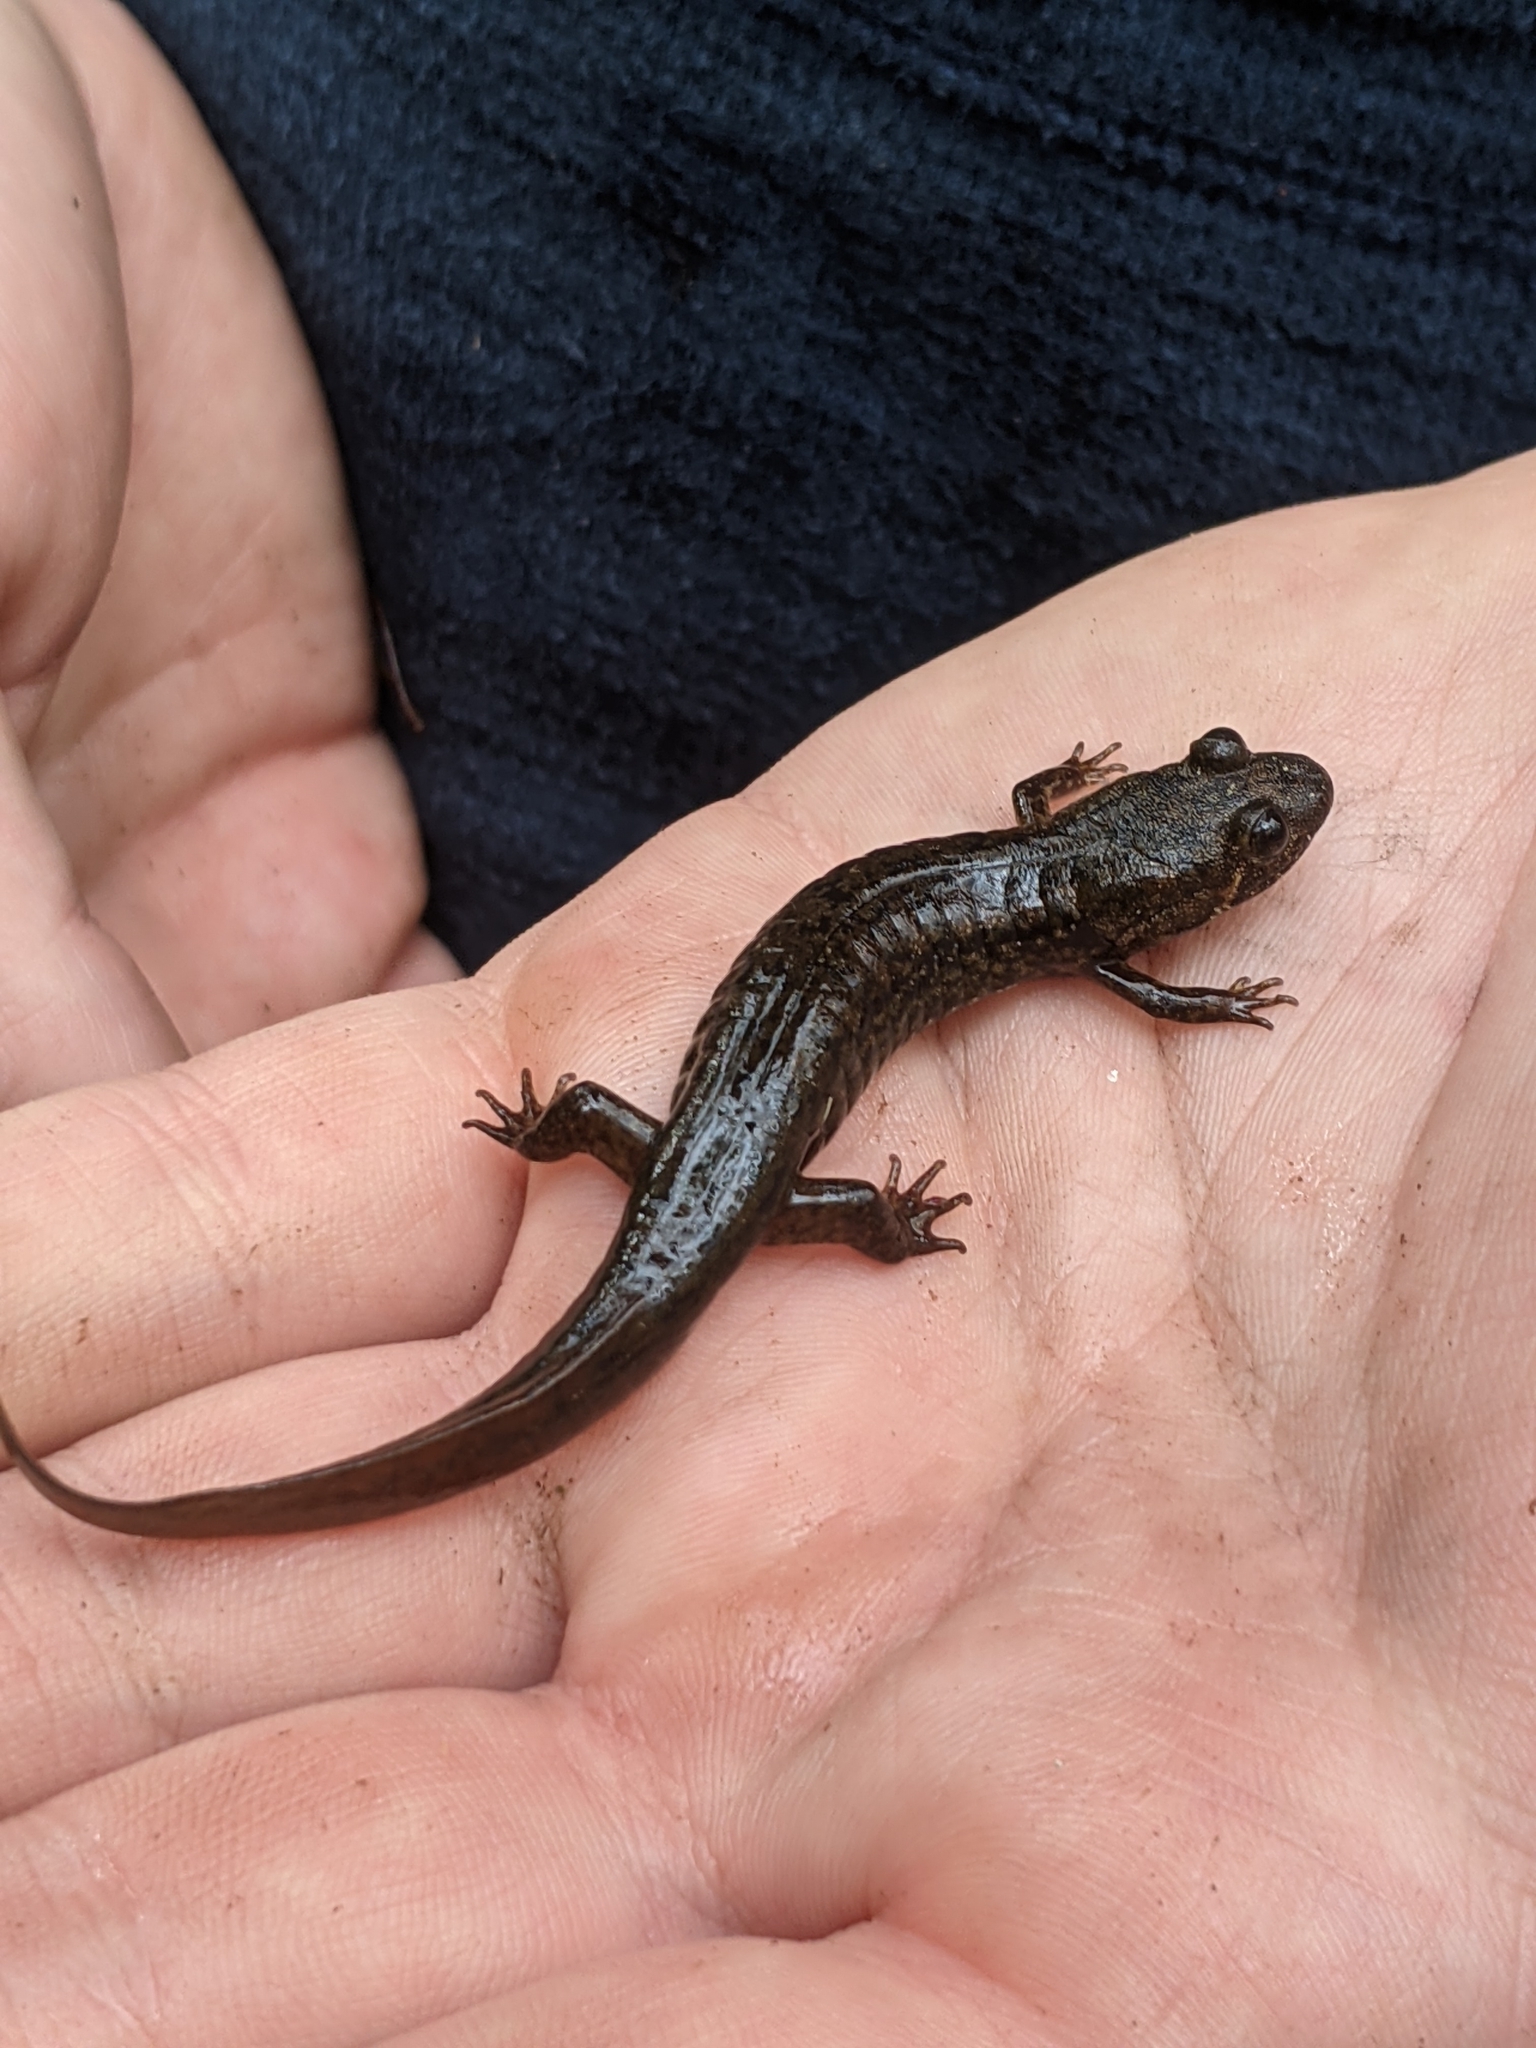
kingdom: Animalia
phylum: Chordata
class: Amphibia
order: Caudata
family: Plethodontidae
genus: Desmognathus
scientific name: Desmognathus
